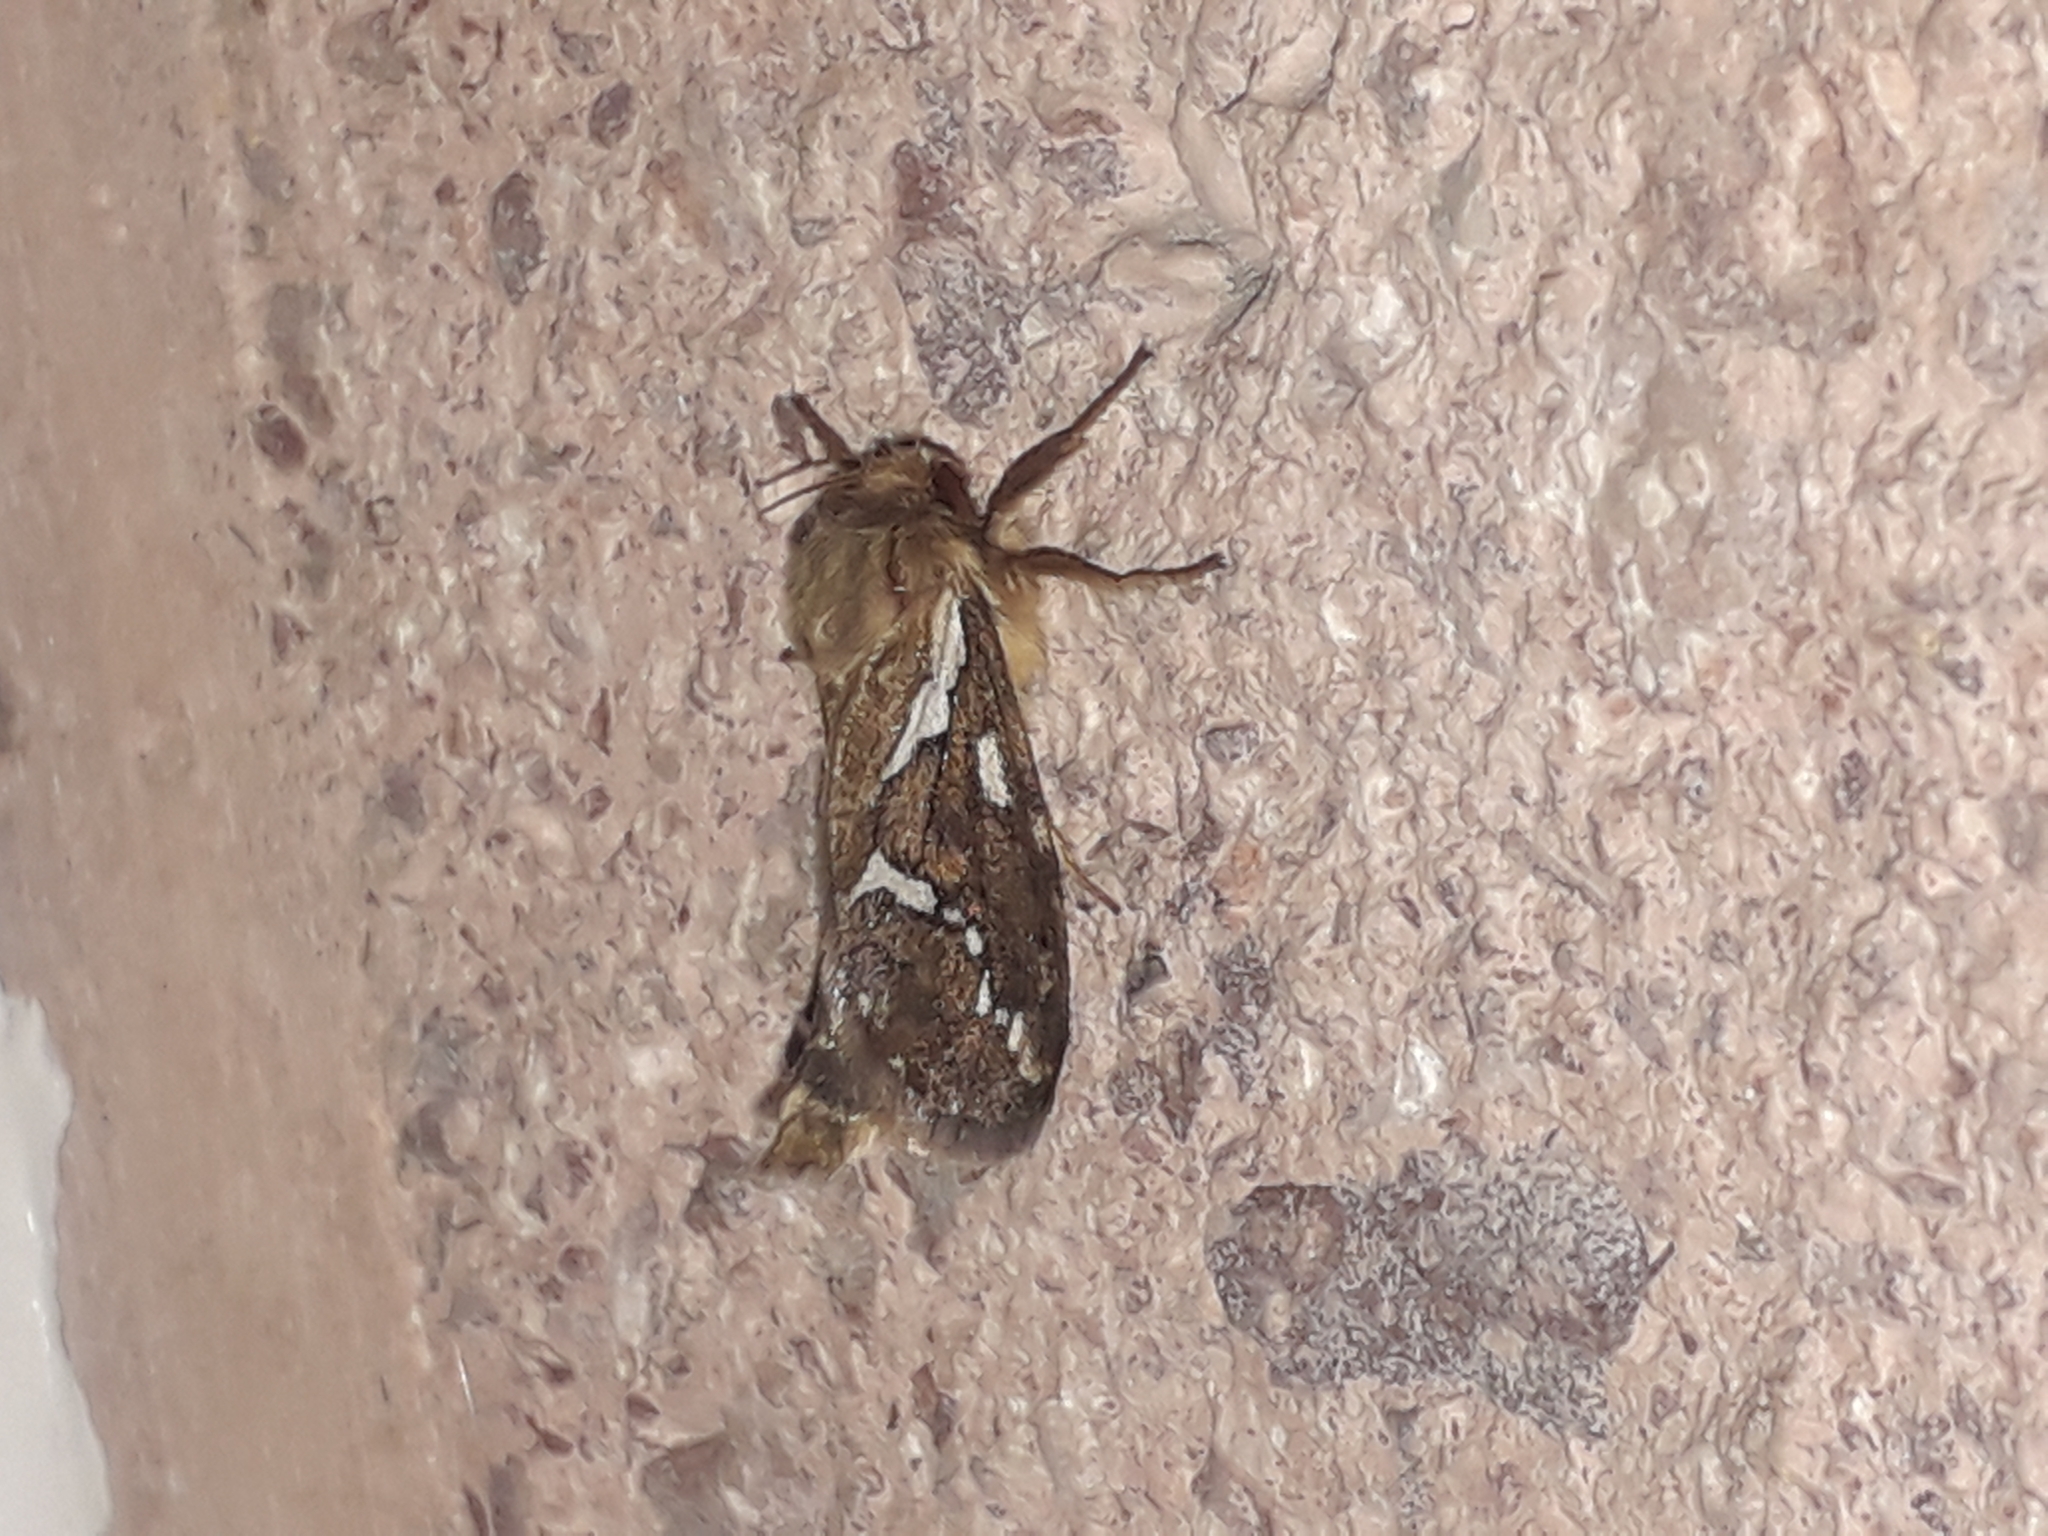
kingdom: Animalia
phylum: Arthropoda
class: Insecta
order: Lepidoptera
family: Hepialidae
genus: Korscheltellus
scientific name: Korscheltellus lupulina
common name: Common swift
